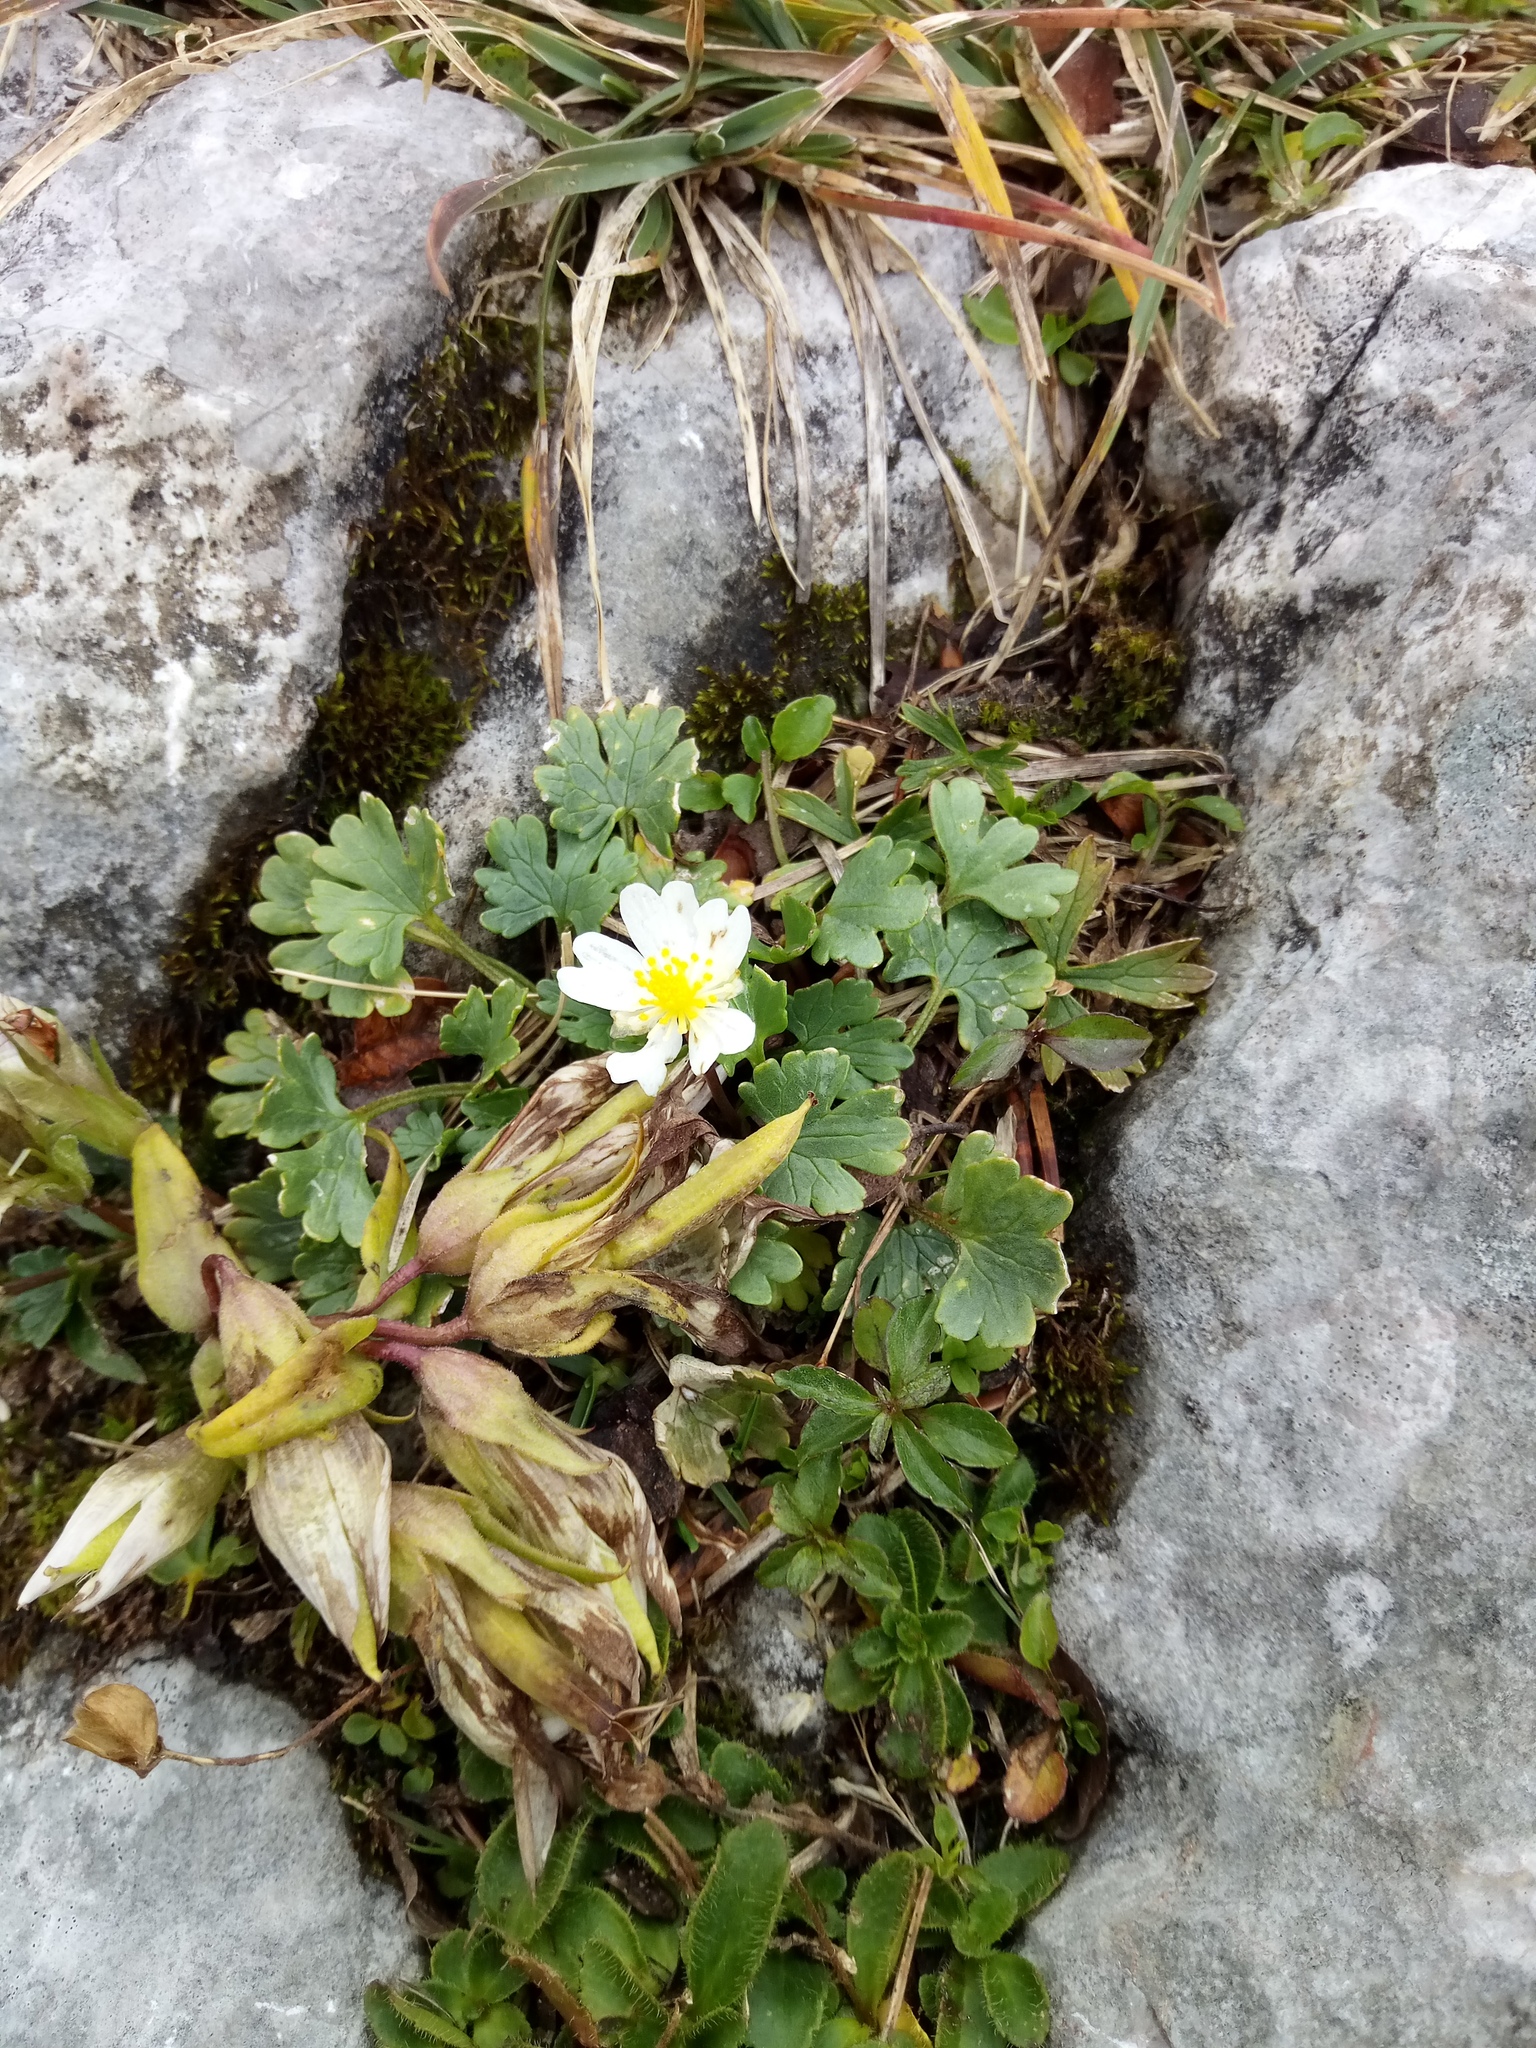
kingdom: Plantae
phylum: Tracheophyta
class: Magnoliopsida
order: Ranunculales
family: Ranunculaceae
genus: Ranunculus
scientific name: Ranunculus alpestris
